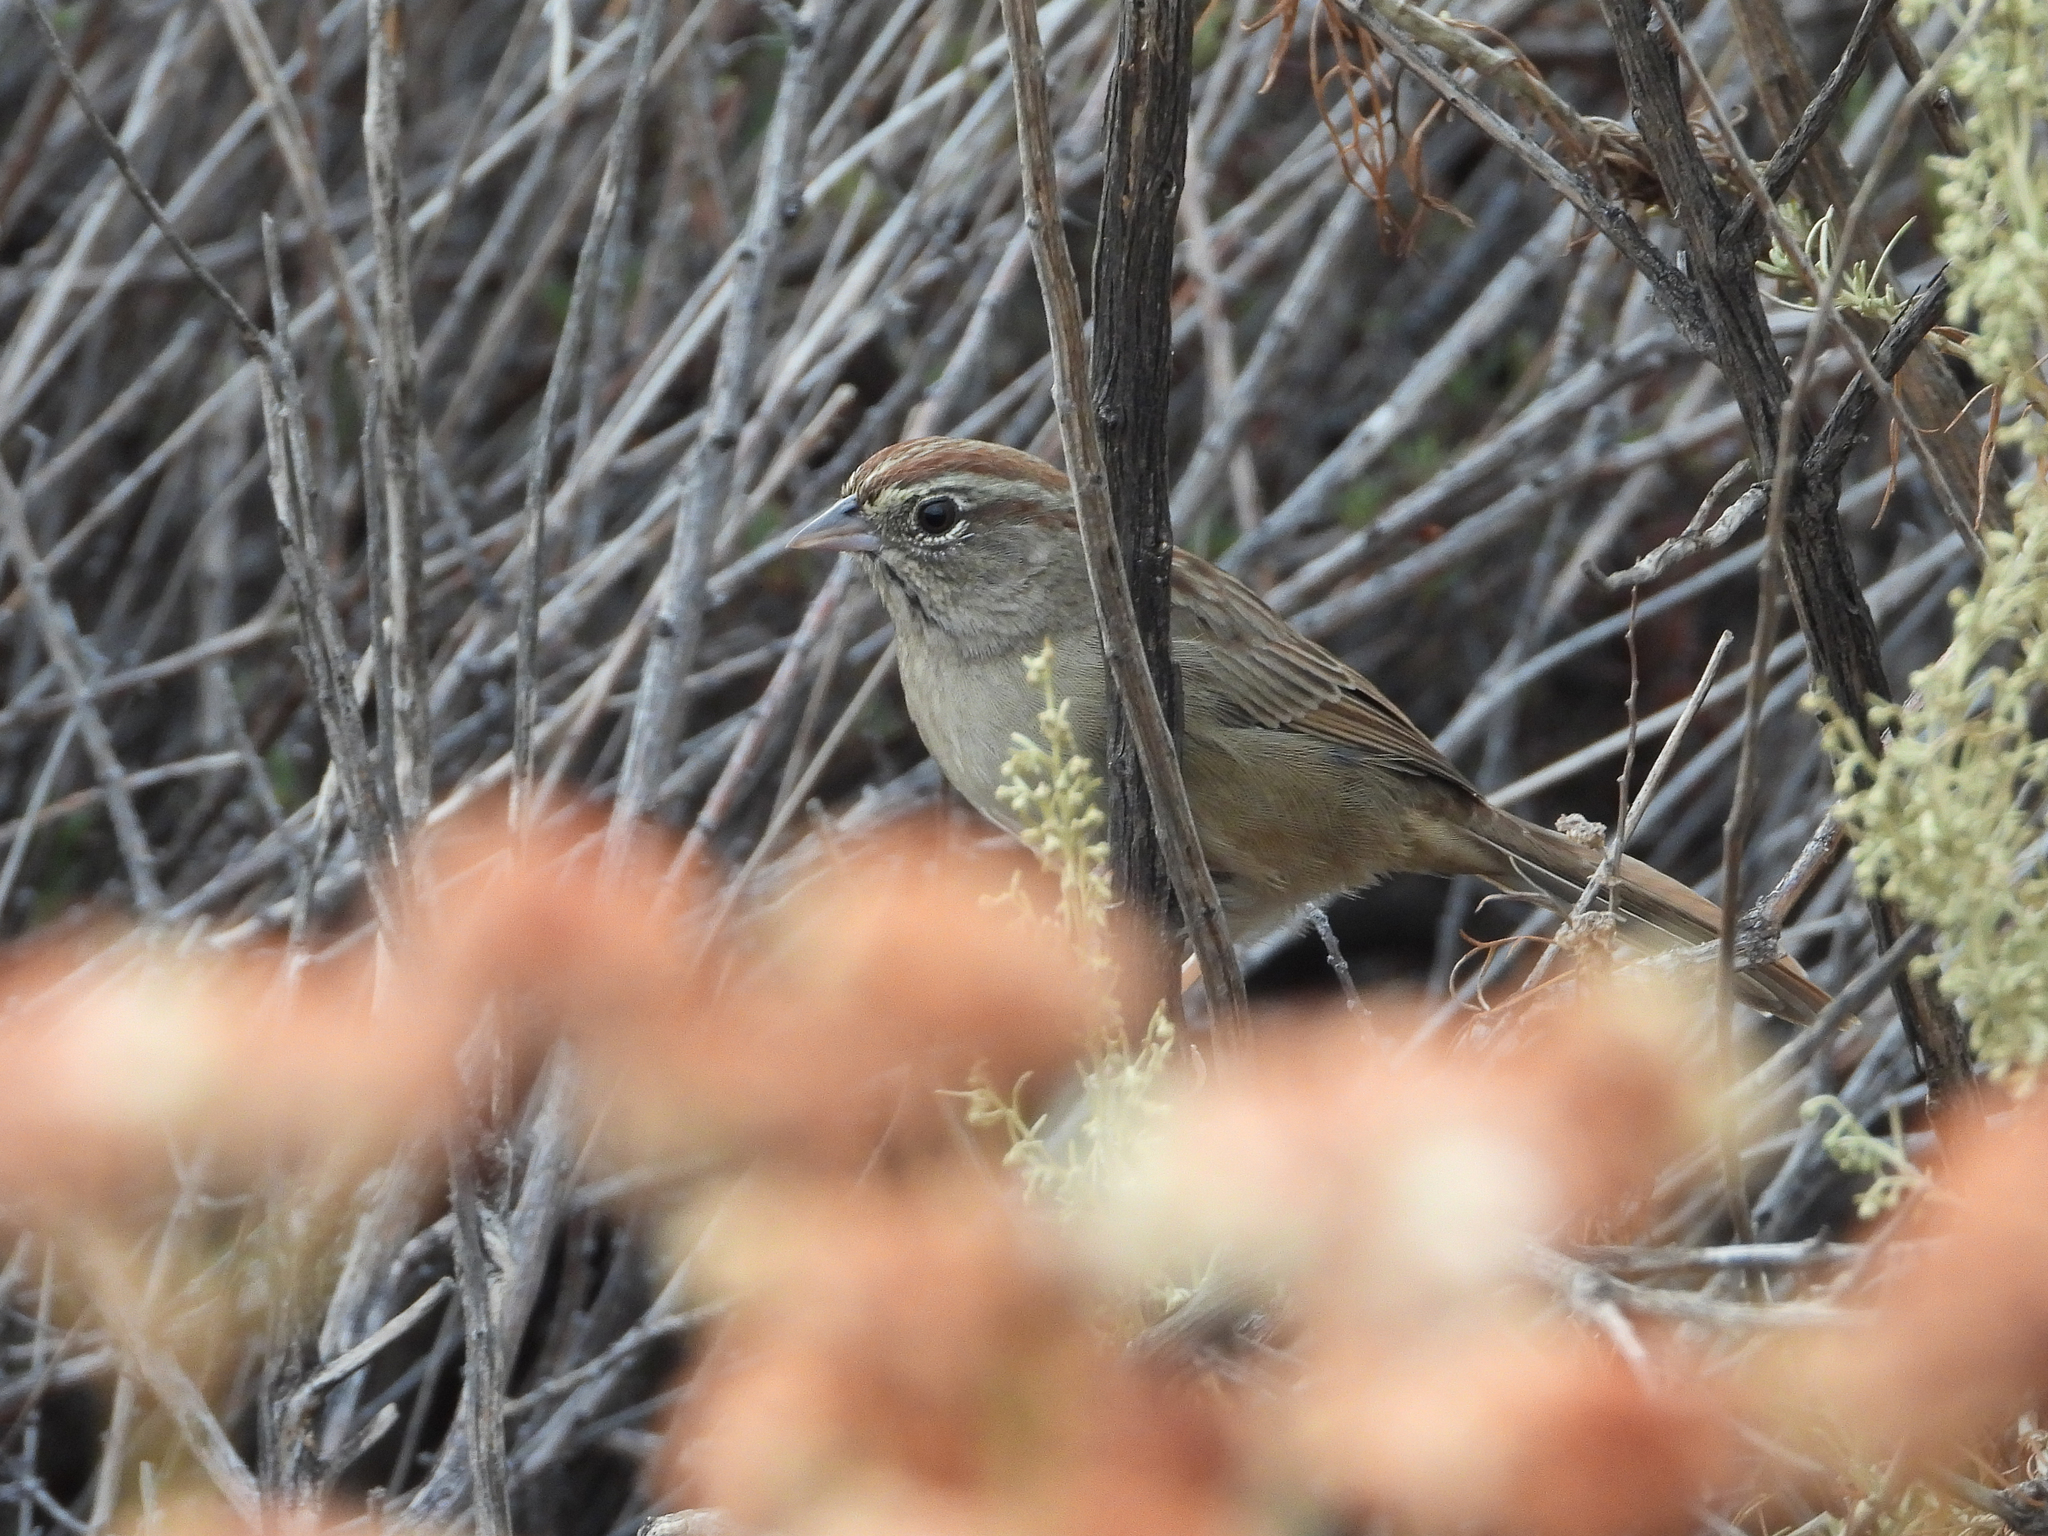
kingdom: Animalia
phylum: Chordata
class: Aves
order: Passeriformes
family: Passerellidae
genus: Aimophila
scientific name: Aimophila ruficeps
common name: Rufous-crowned sparrow
